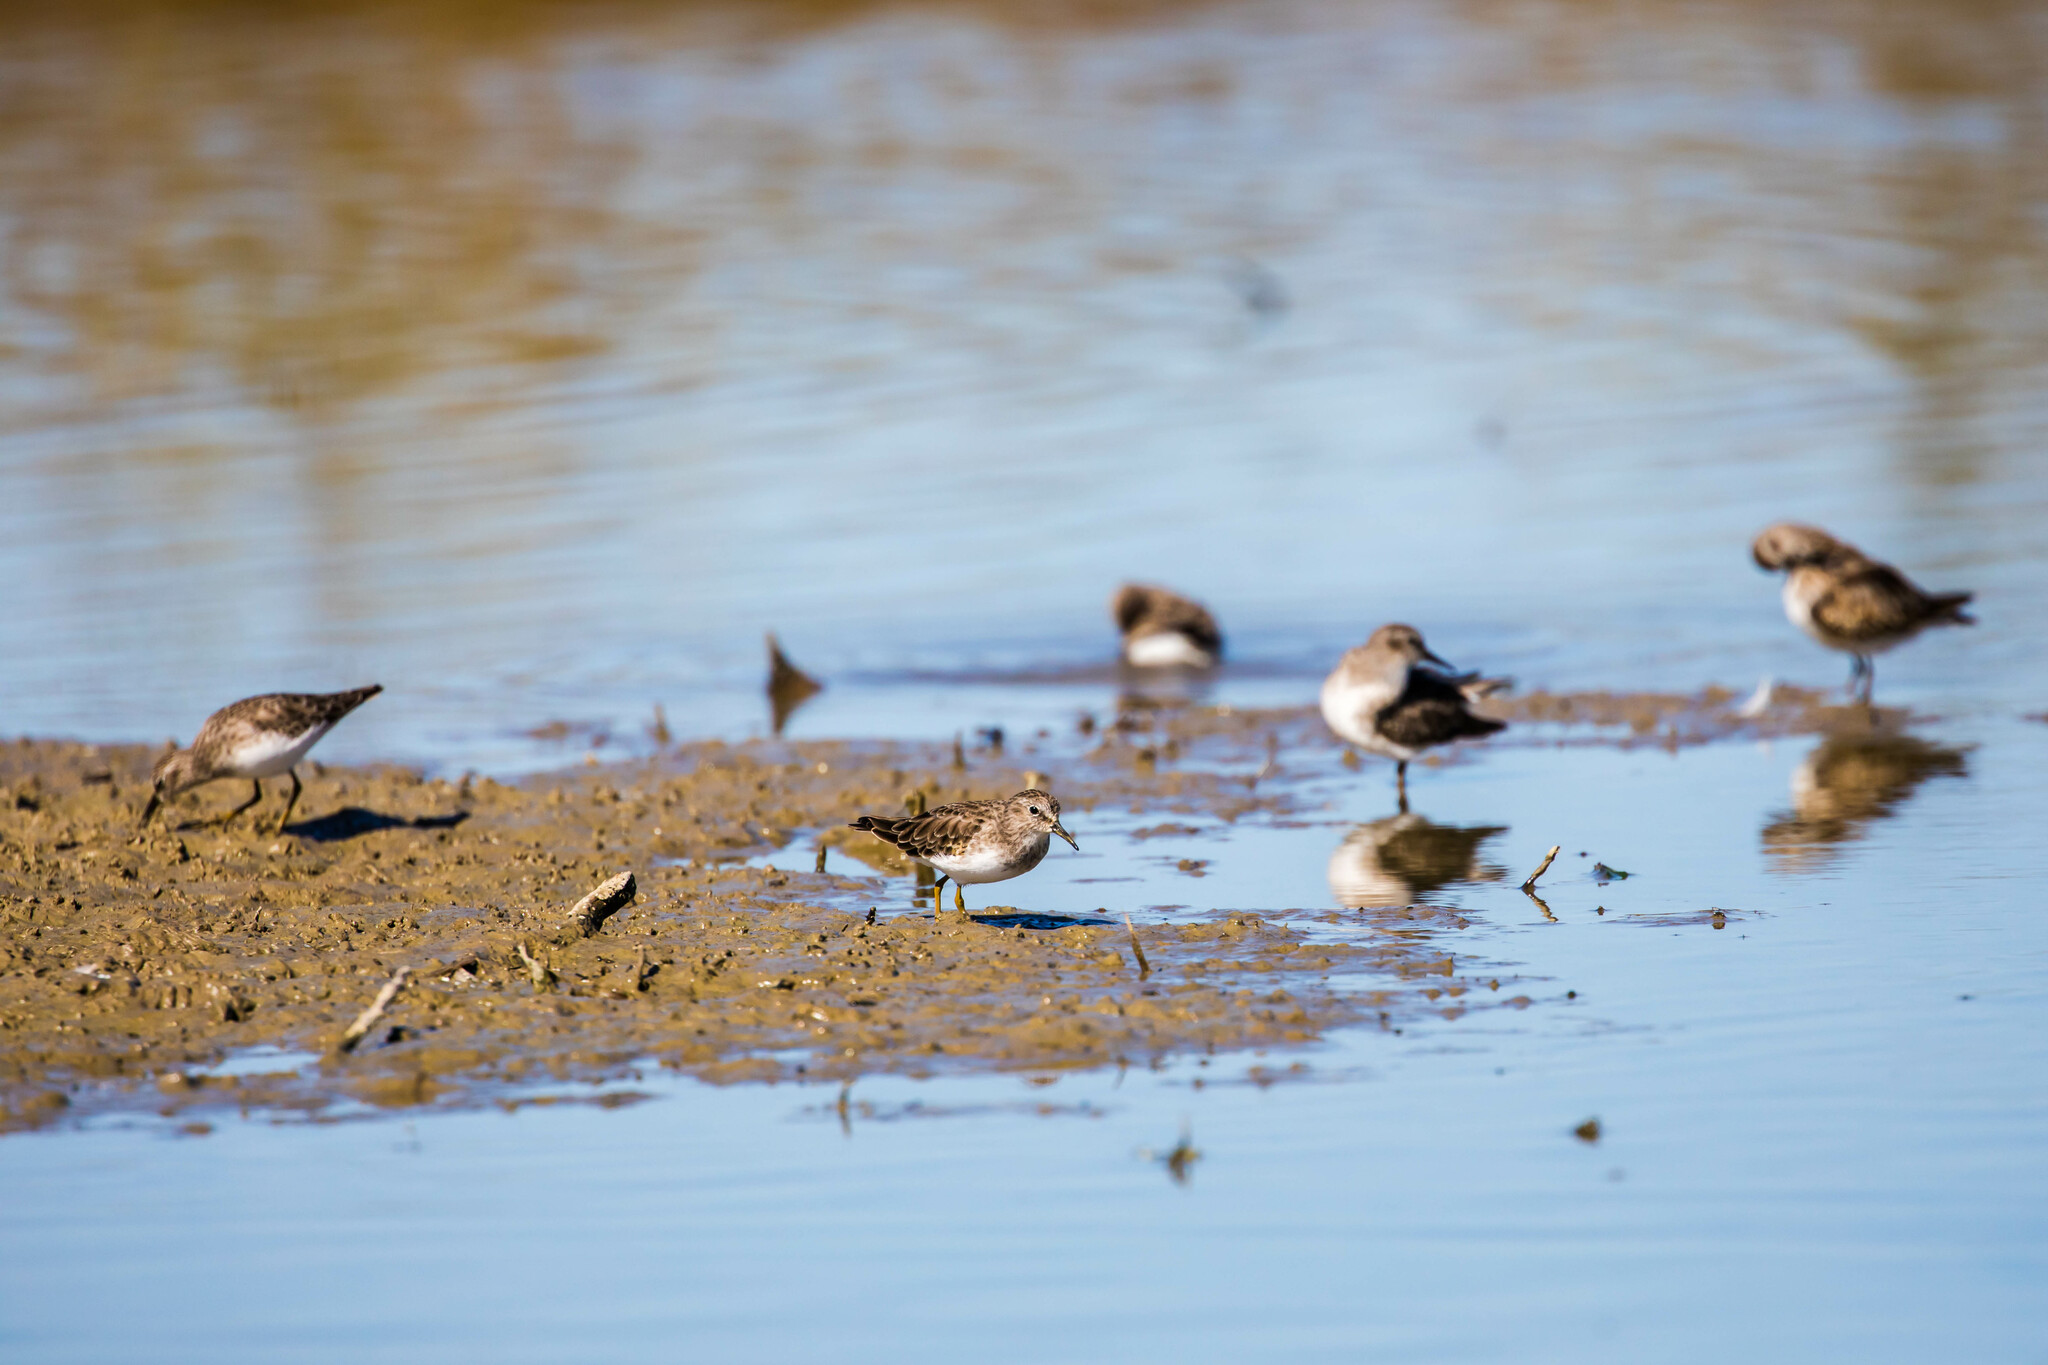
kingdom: Animalia
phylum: Chordata
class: Aves
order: Charadriiformes
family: Scolopacidae
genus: Calidris
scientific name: Calidris minutilla
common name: Least sandpiper
